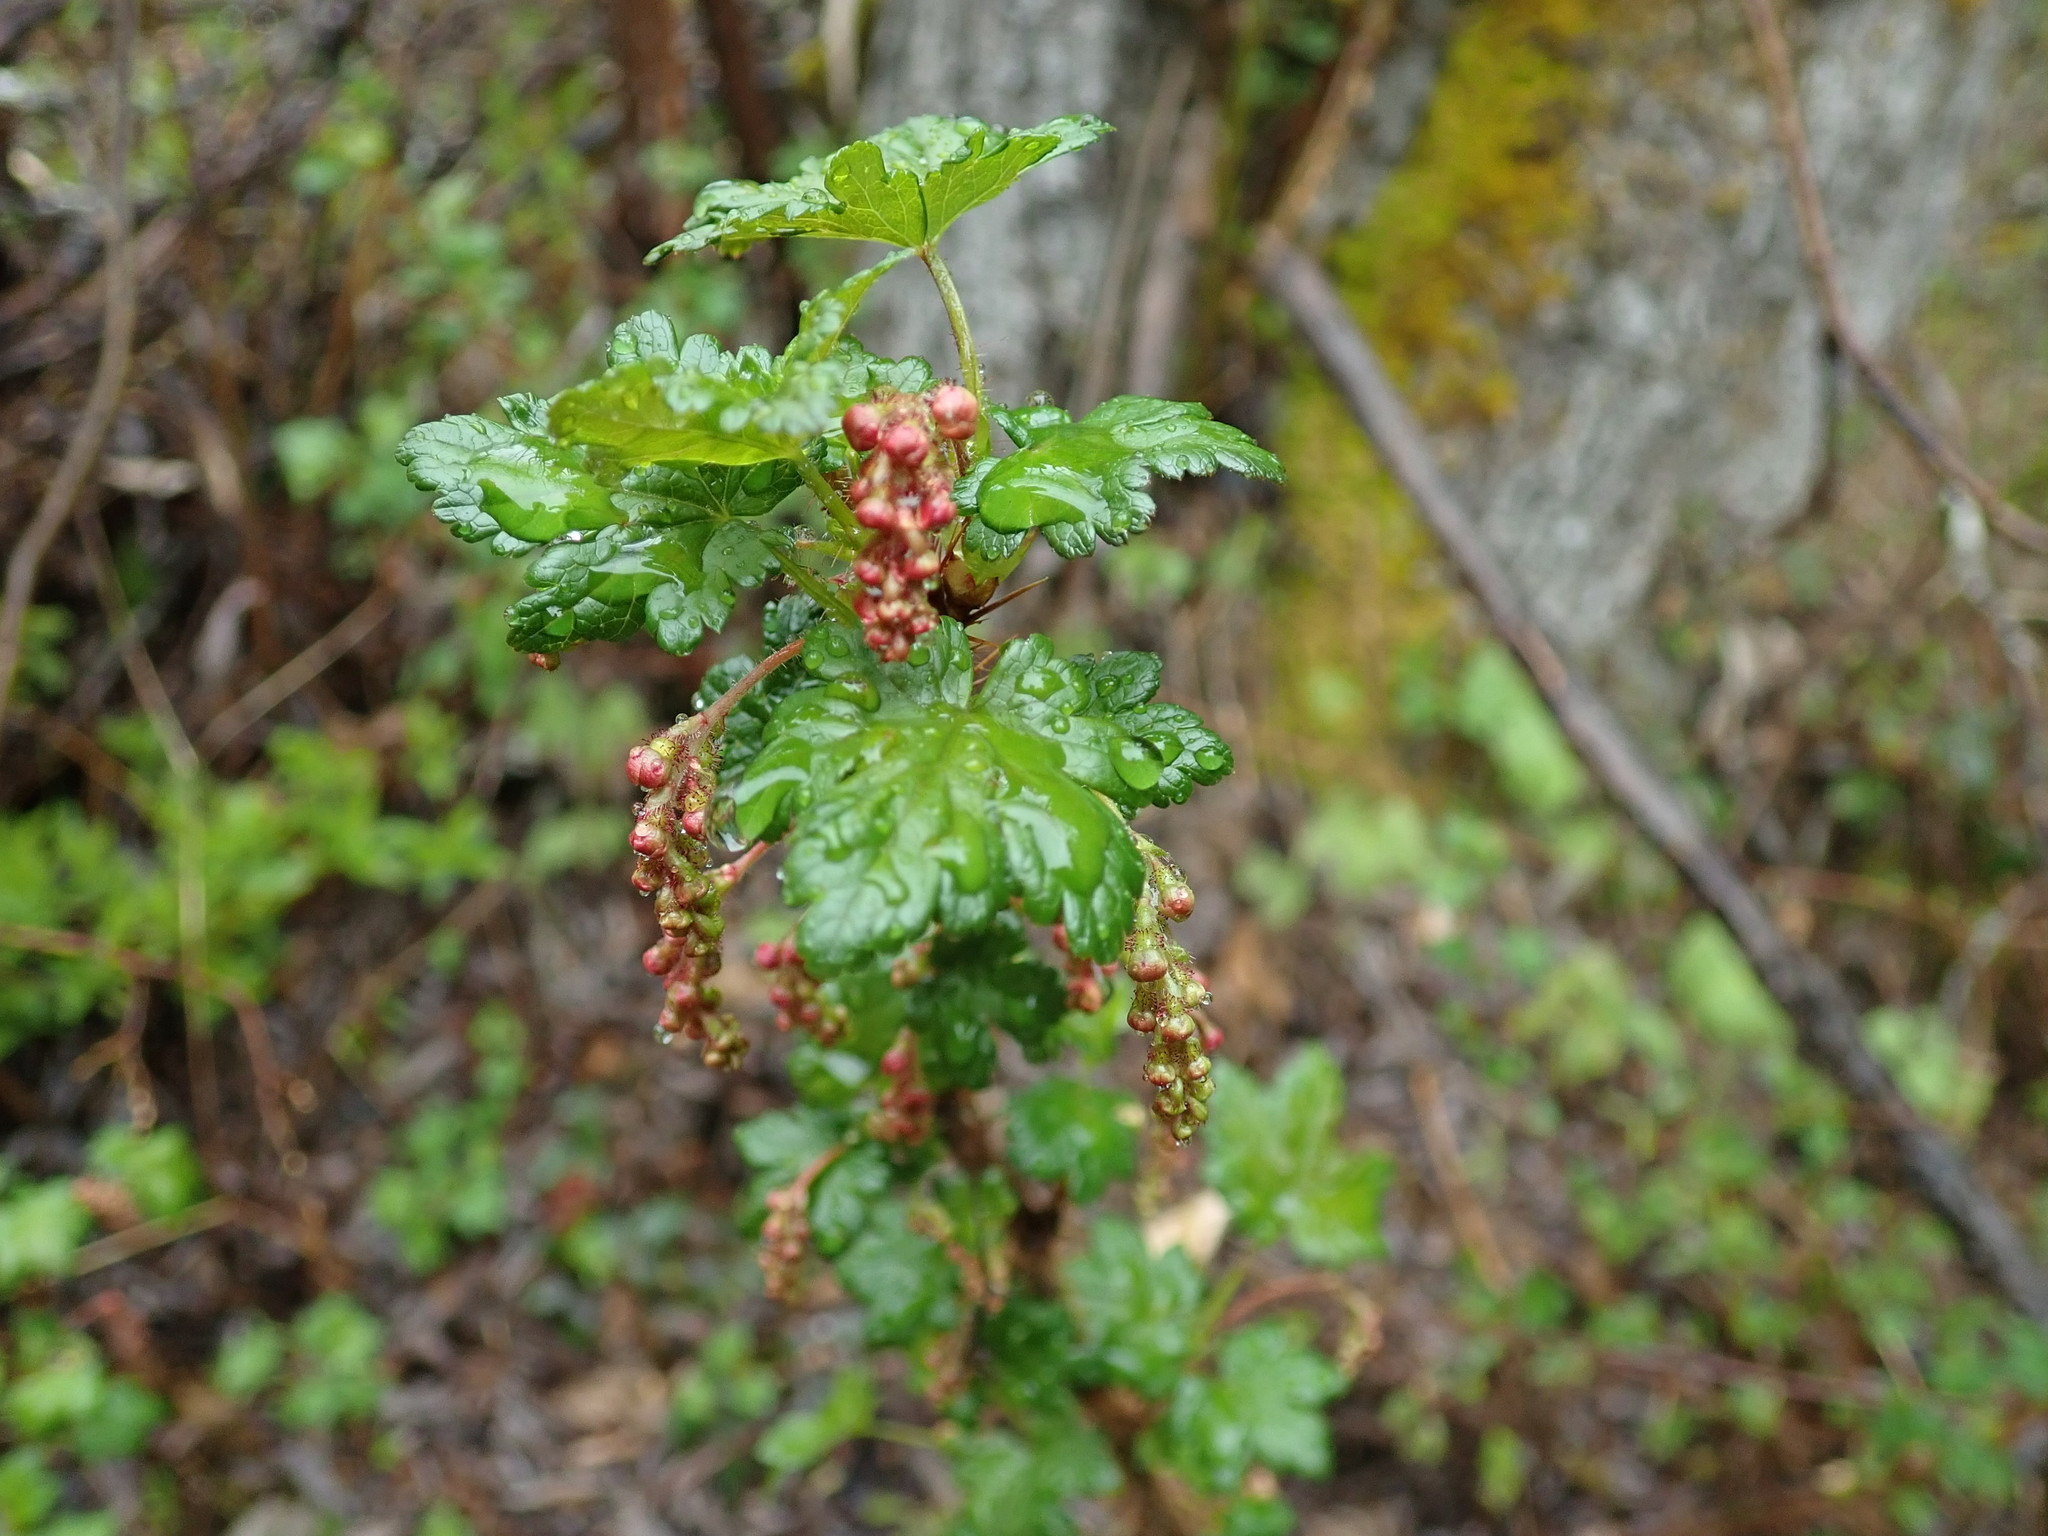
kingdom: Plantae
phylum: Tracheophyta
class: Magnoliopsida
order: Saxifragales
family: Grossulariaceae
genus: Ribes
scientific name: Ribes lacustre
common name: Black gooseberry
